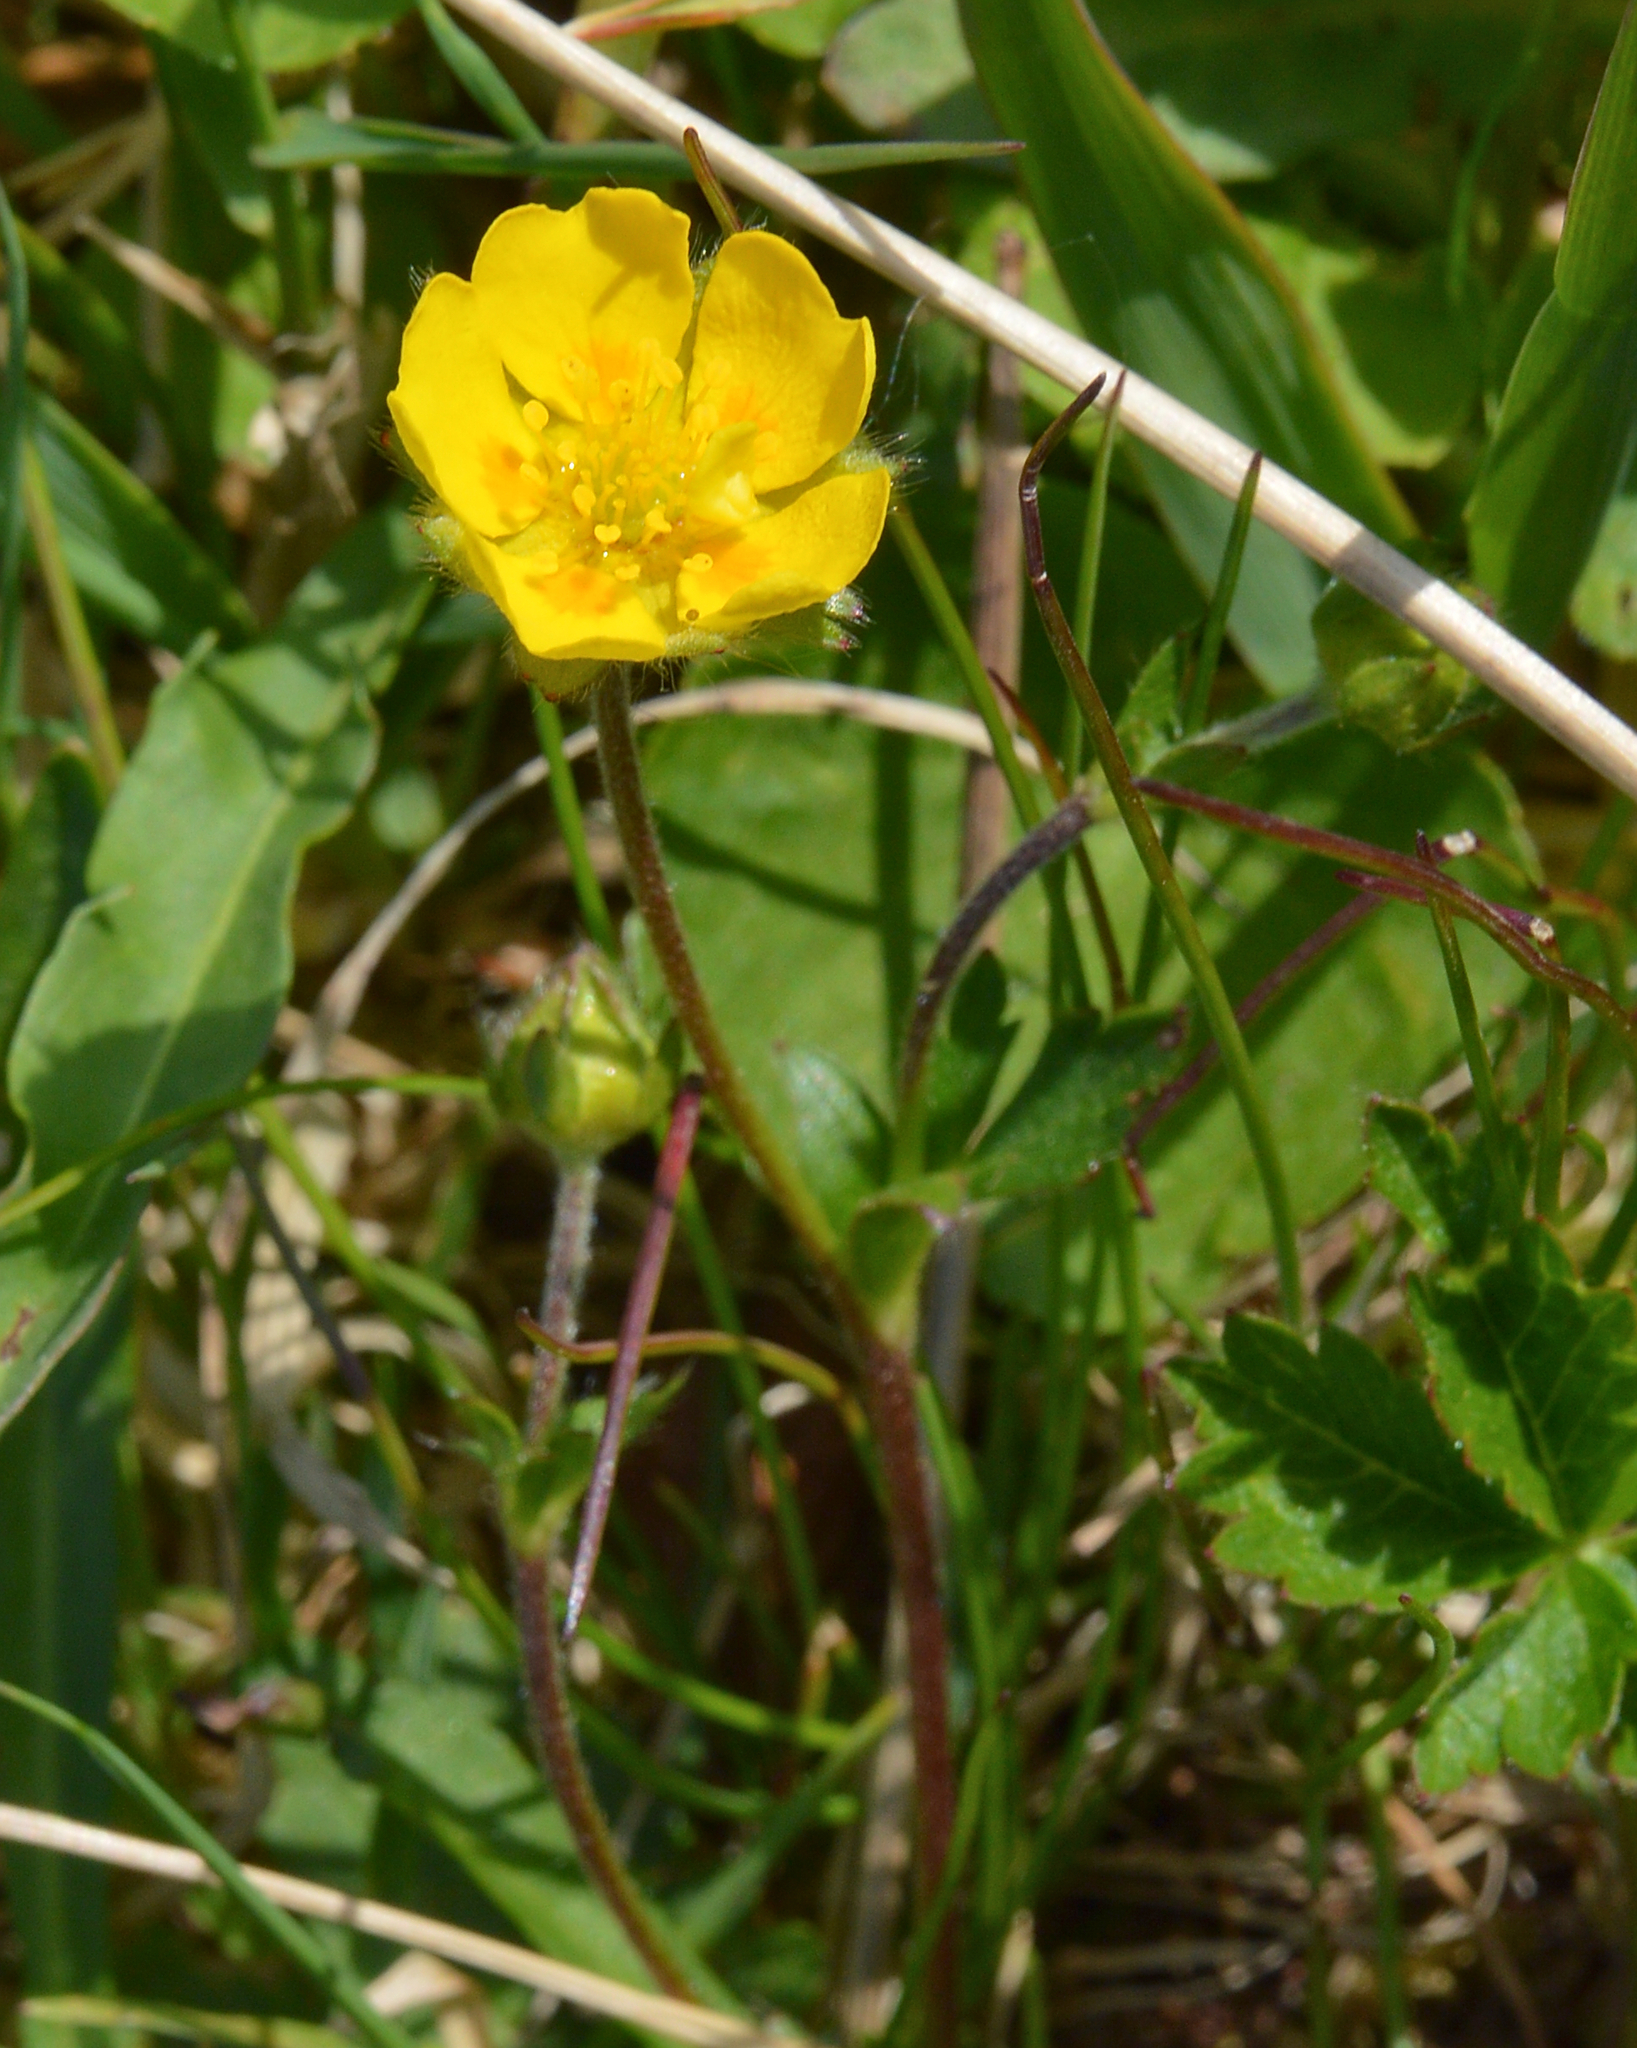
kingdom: Plantae
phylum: Tracheophyta
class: Magnoliopsida
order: Rosales
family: Rosaceae
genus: Potentilla
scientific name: Potentilla crantzii
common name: Alpine cinquefoil
